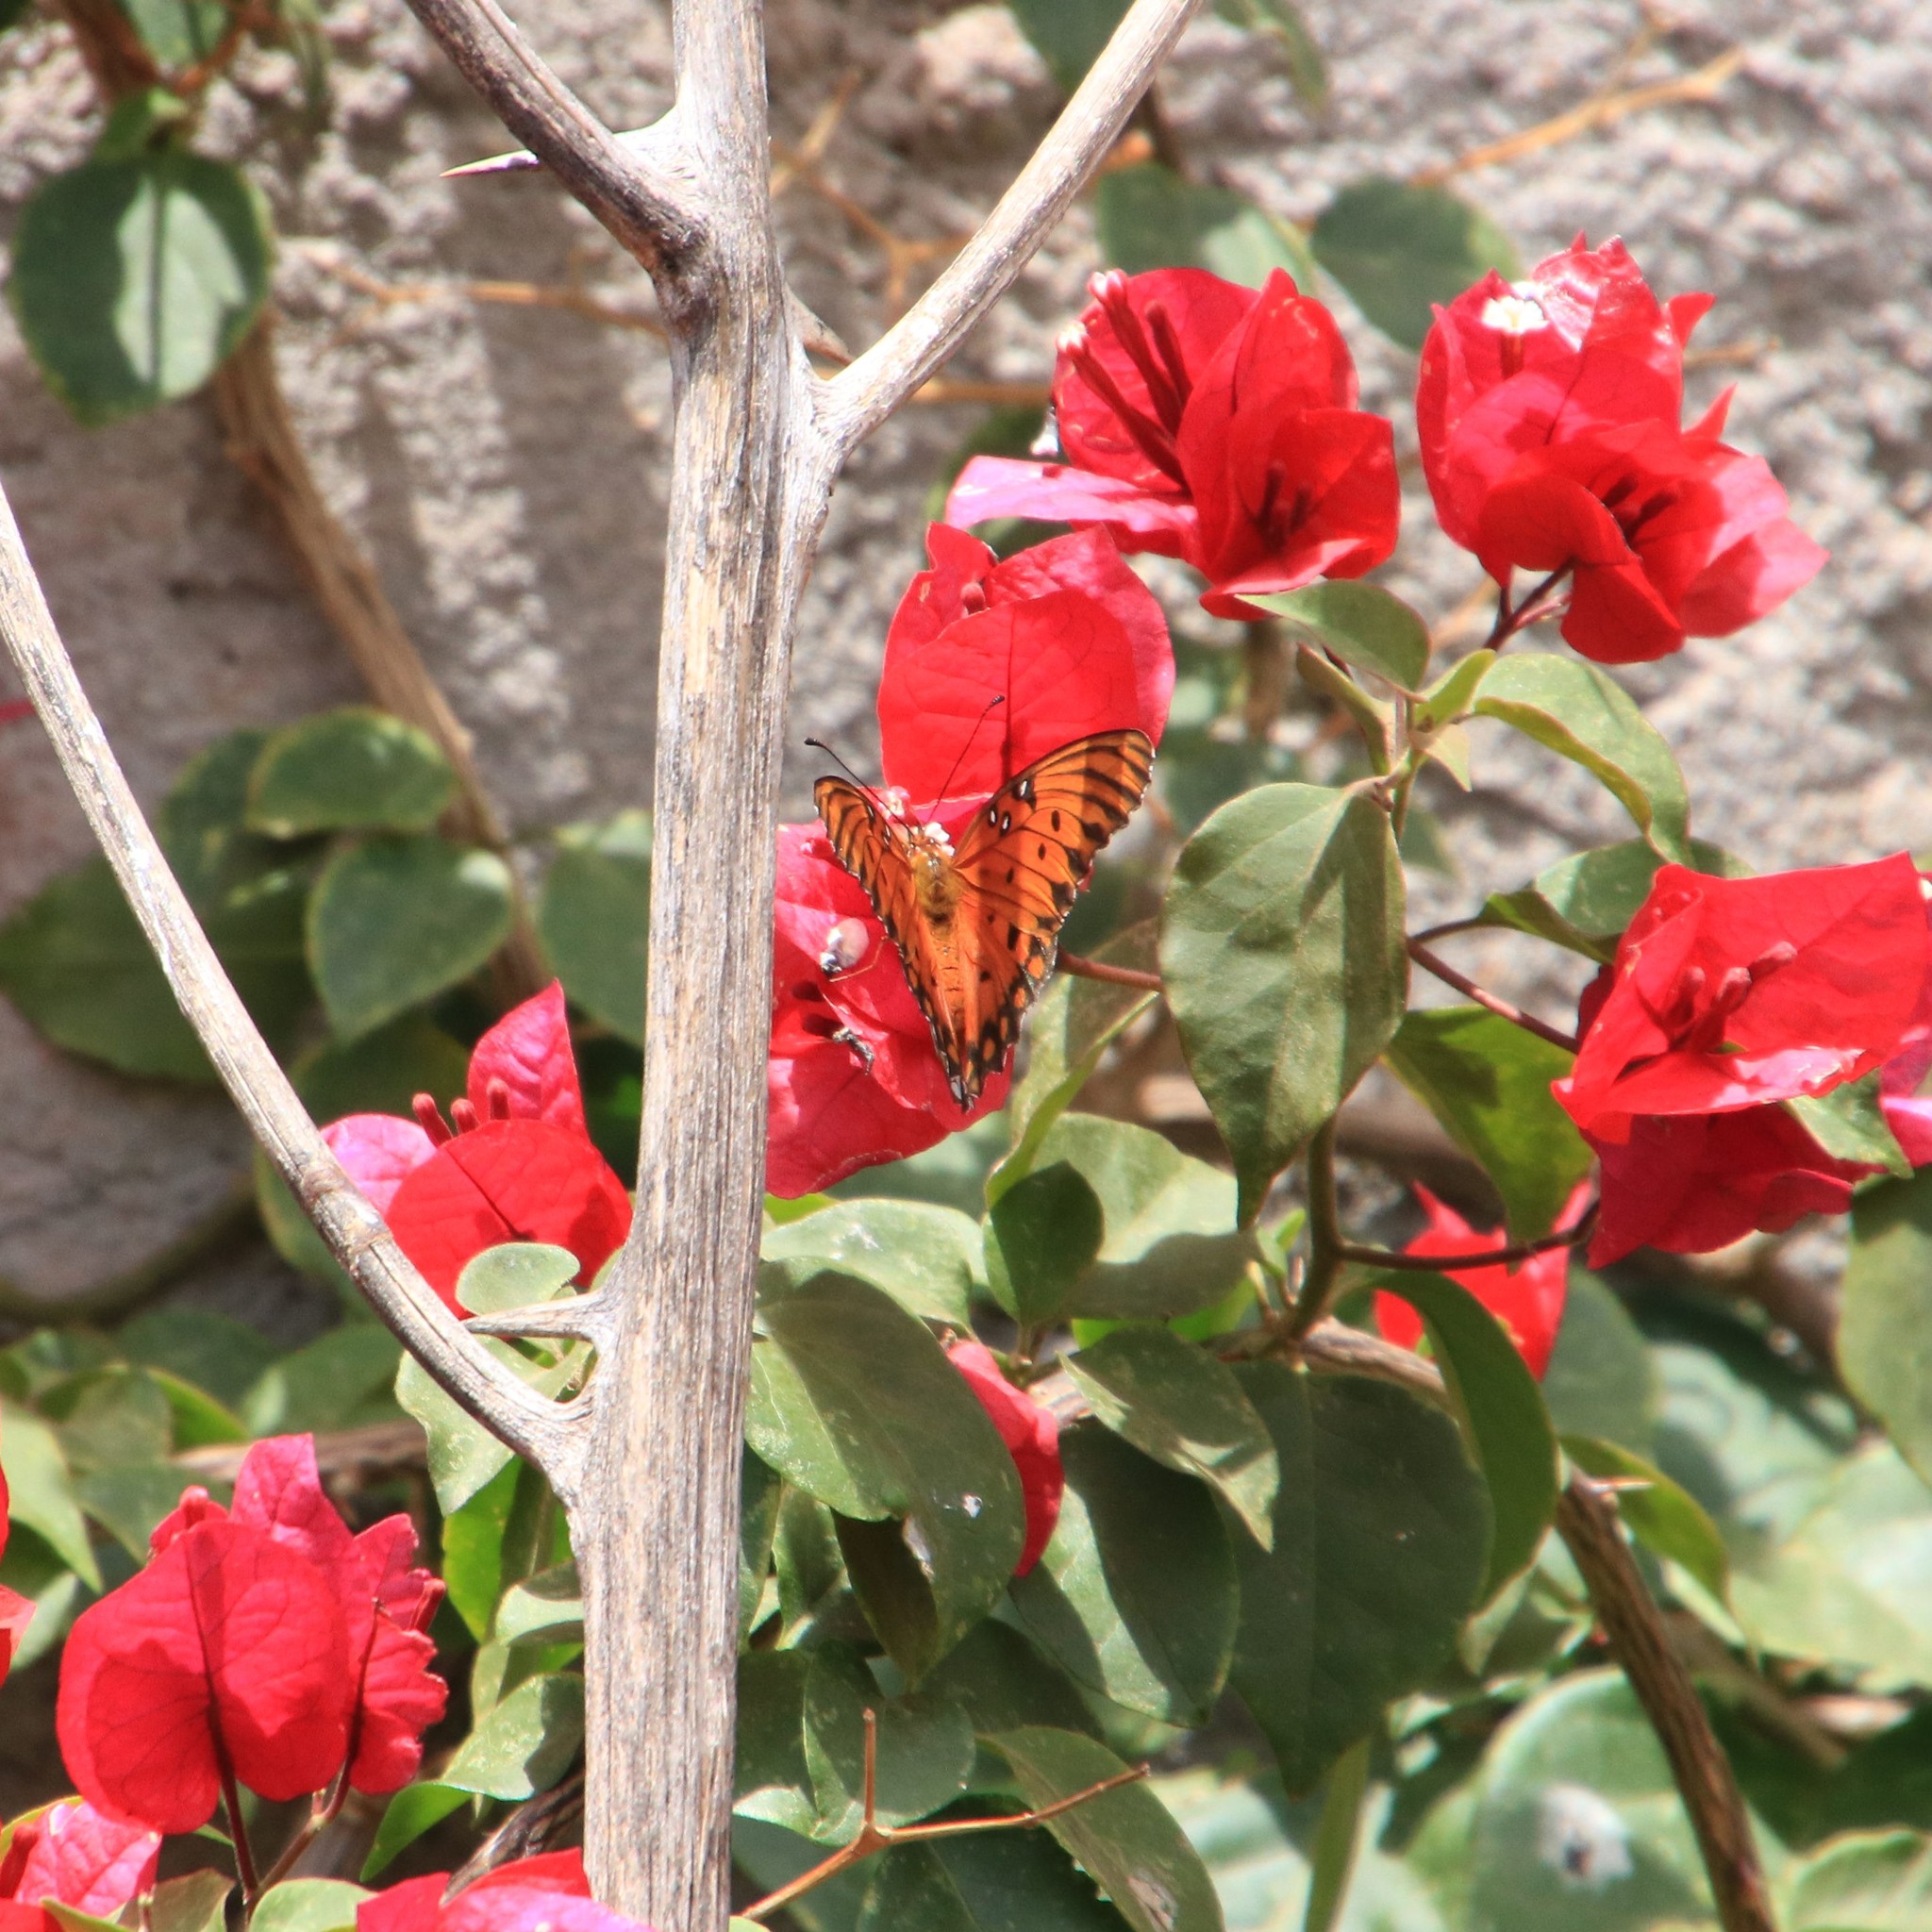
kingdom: Animalia
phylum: Arthropoda
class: Insecta
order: Lepidoptera
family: Nymphalidae
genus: Dione
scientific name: Dione vanillae
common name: Gulf fritillary
